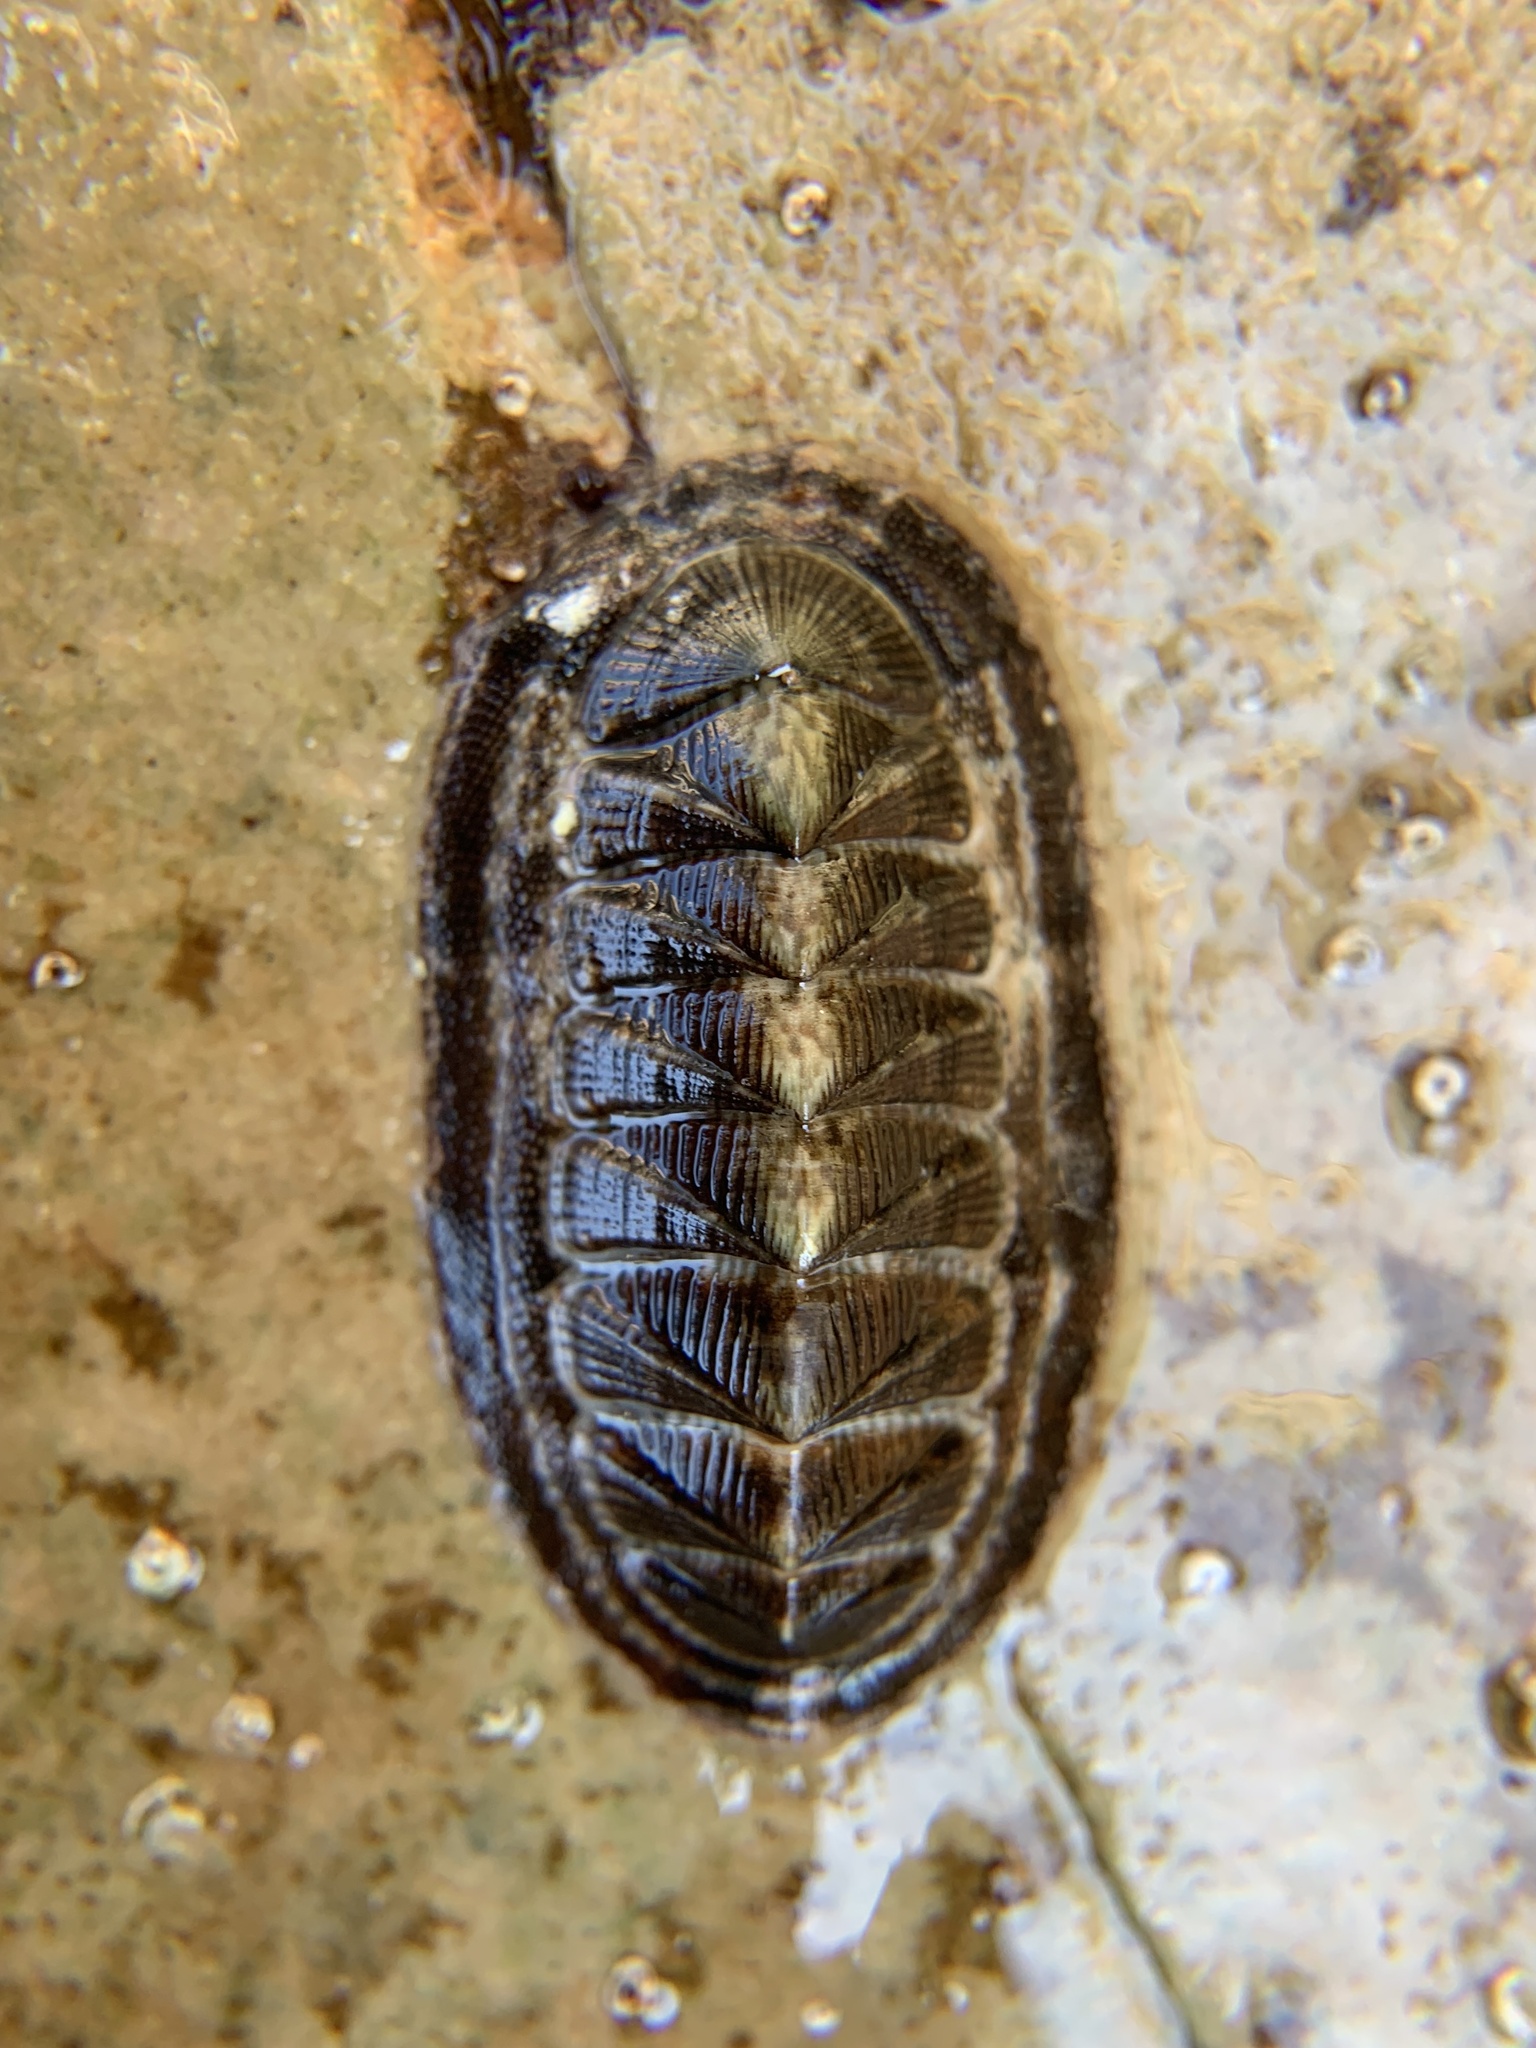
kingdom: Animalia
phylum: Mollusca
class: Polyplacophora
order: Chitonida
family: Chitonidae
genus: Rhyssoplax
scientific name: Rhyssoplax olivacea
